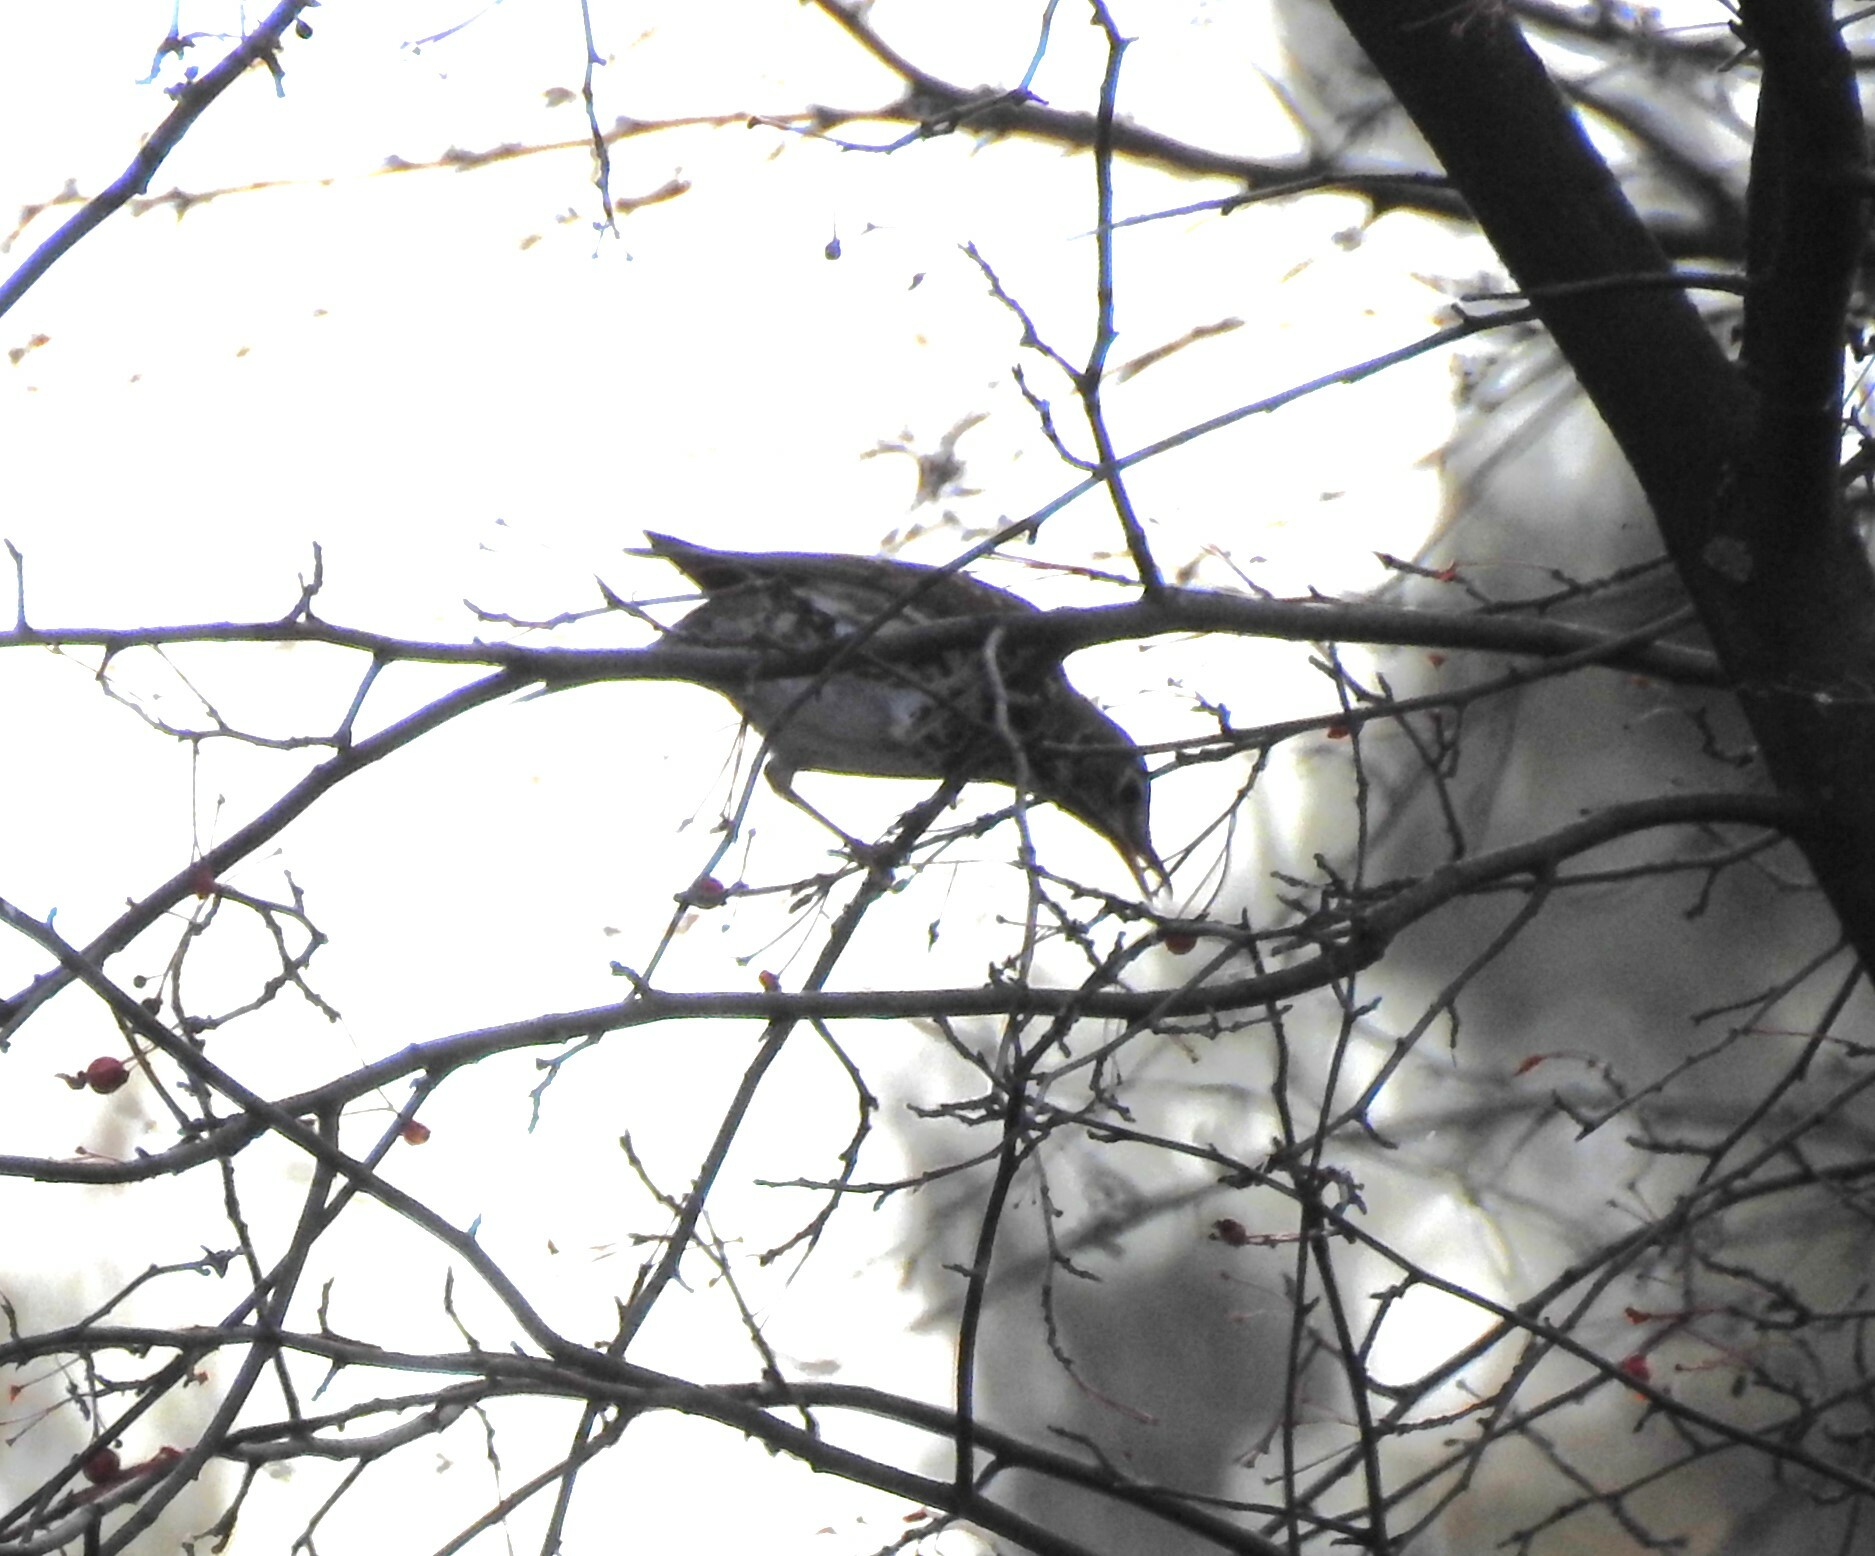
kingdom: Animalia
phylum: Chordata
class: Aves
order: Passeriformes
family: Turdidae
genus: Turdus
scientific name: Turdus philomelos
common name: Song thrush
